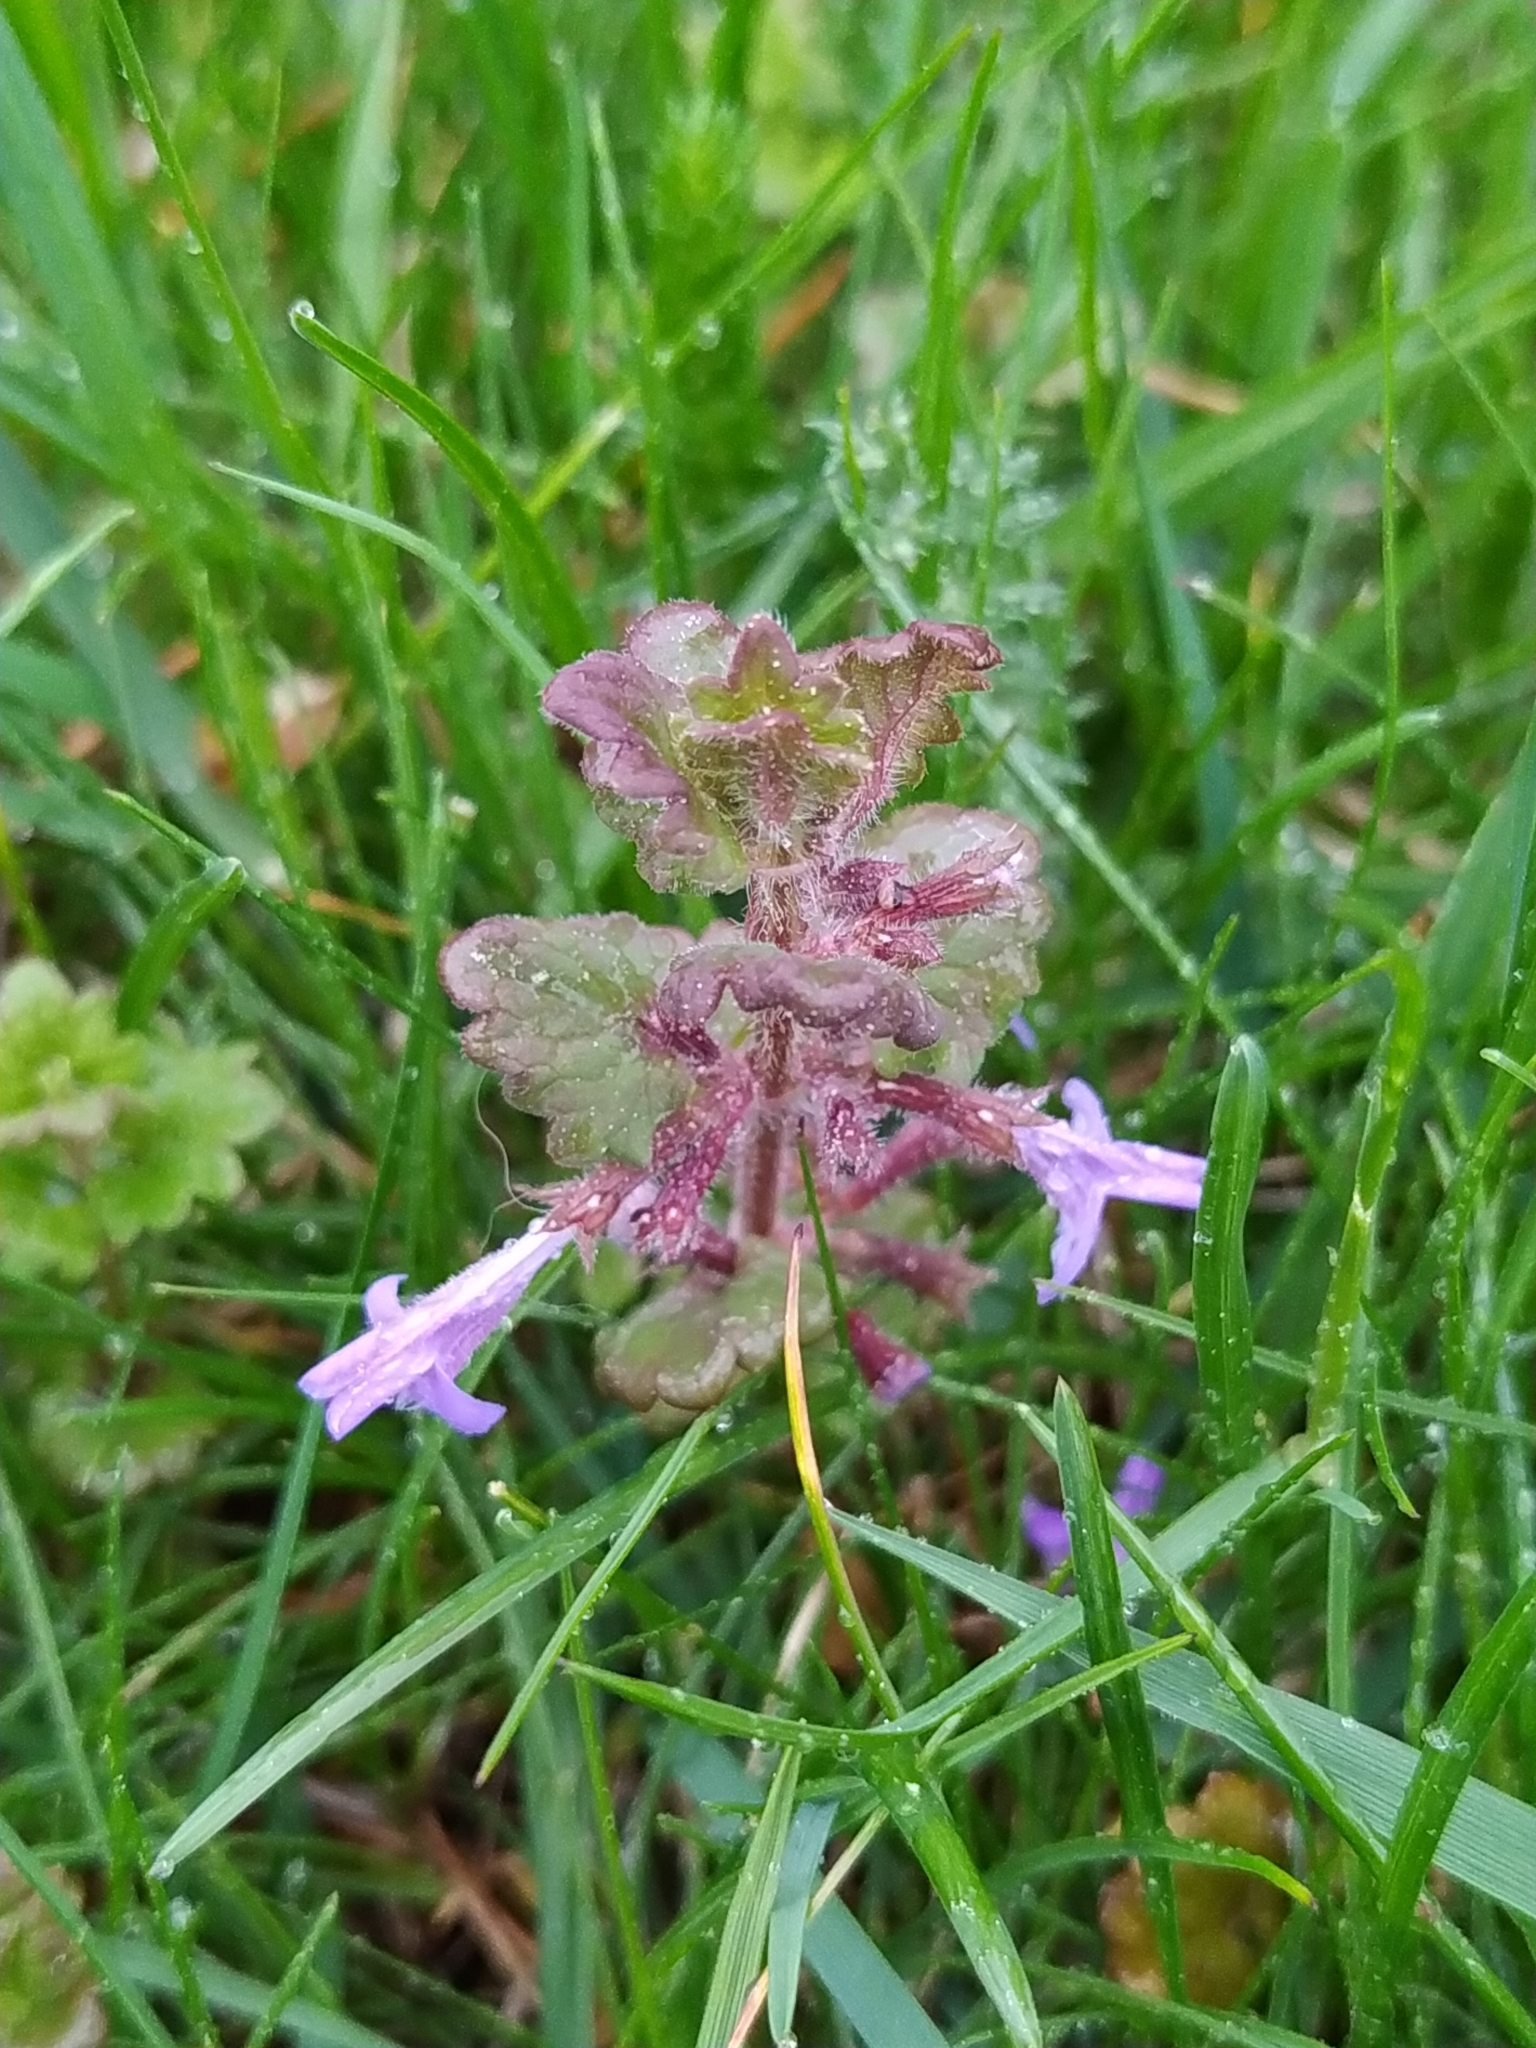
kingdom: Plantae
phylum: Tracheophyta
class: Magnoliopsida
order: Lamiales
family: Lamiaceae
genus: Glechoma
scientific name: Glechoma hederacea
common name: Ground ivy
